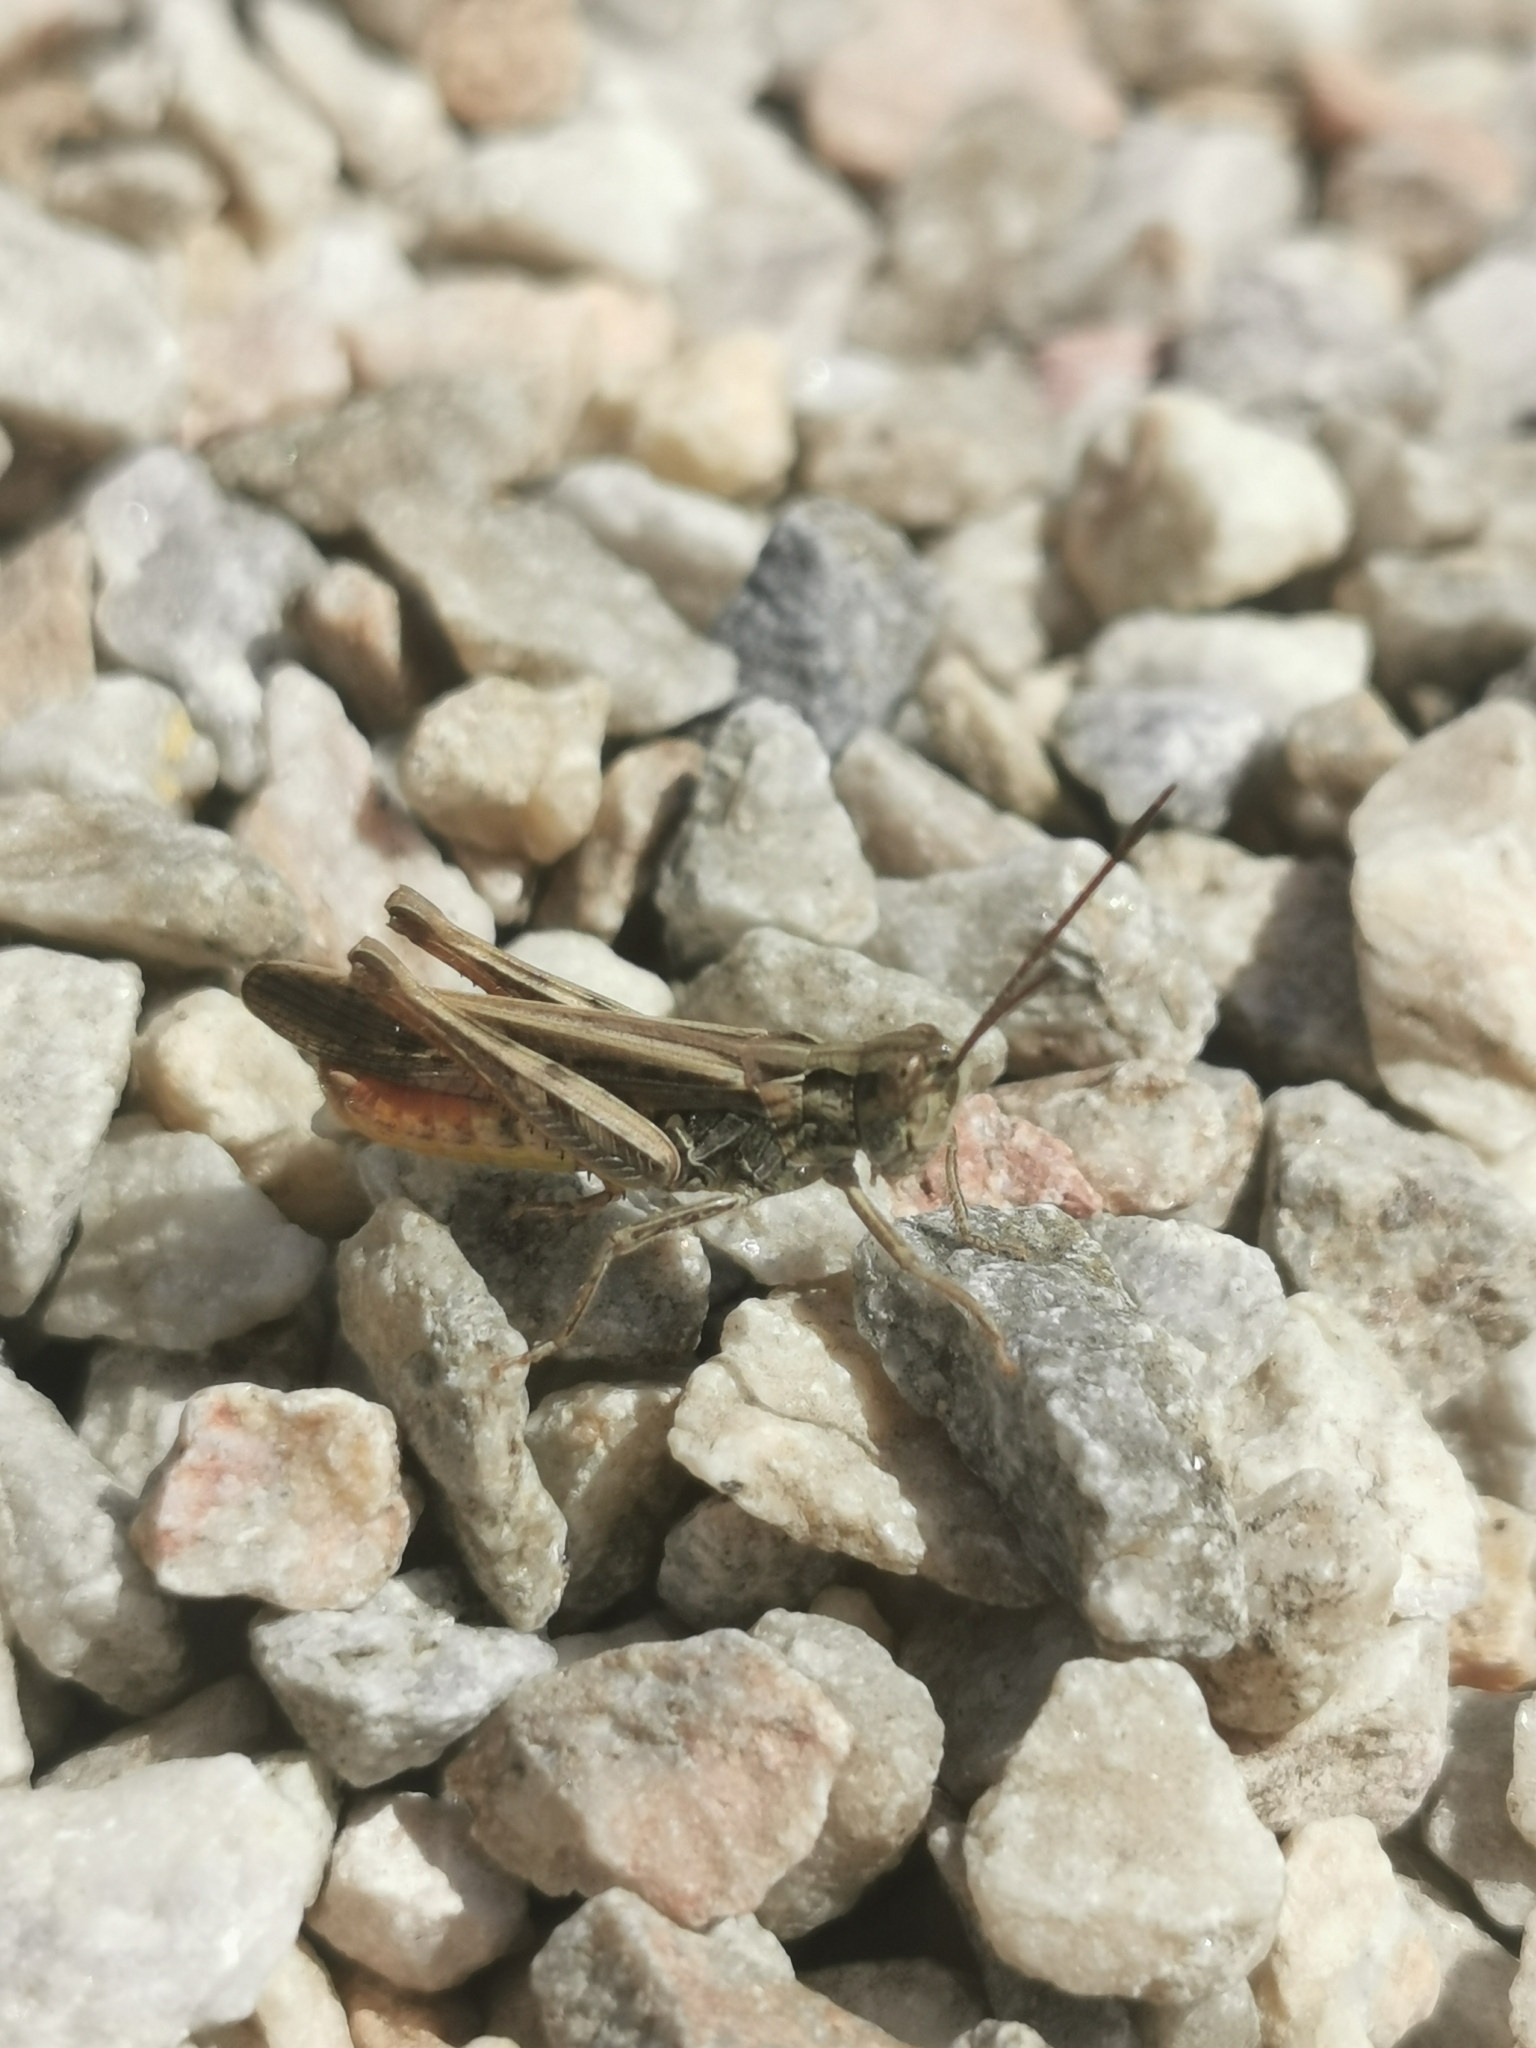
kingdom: Animalia
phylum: Arthropoda
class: Insecta
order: Orthoptera
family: Acrididae
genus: Chorthippus
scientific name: Chorthippus brunneus
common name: Field grasshopper
